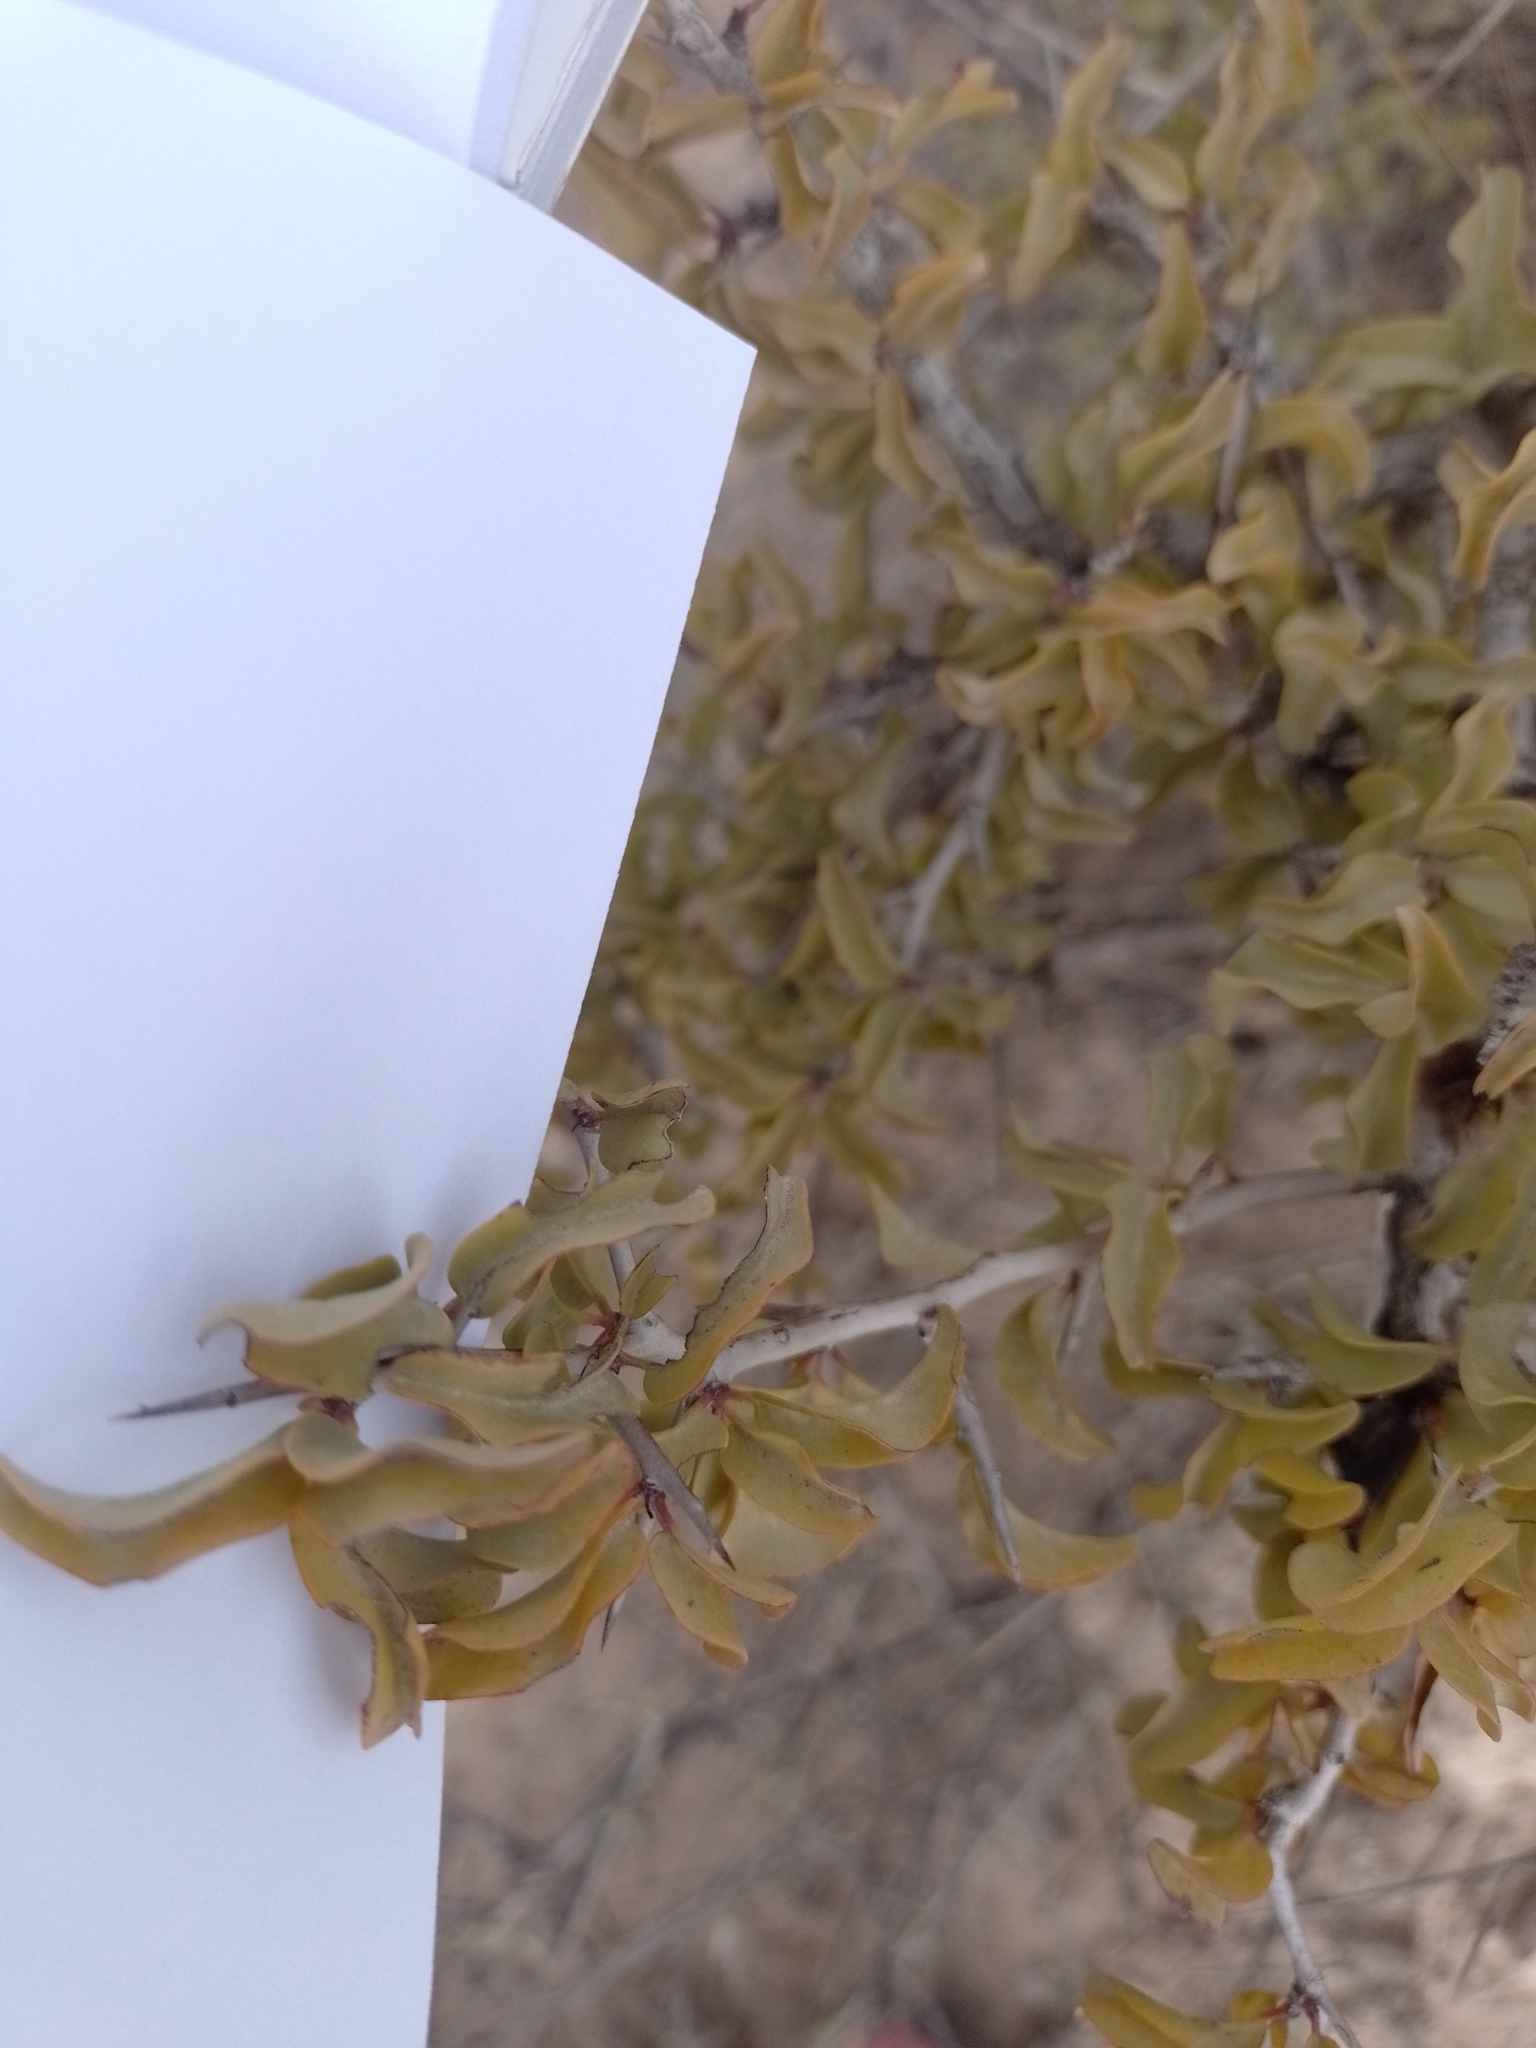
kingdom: Plantae
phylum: Tracheophyta
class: Magnoliopsida
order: Santalales
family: Ximeniaceae
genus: Ximenia
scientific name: Ximenia americana
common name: Tallowwood
